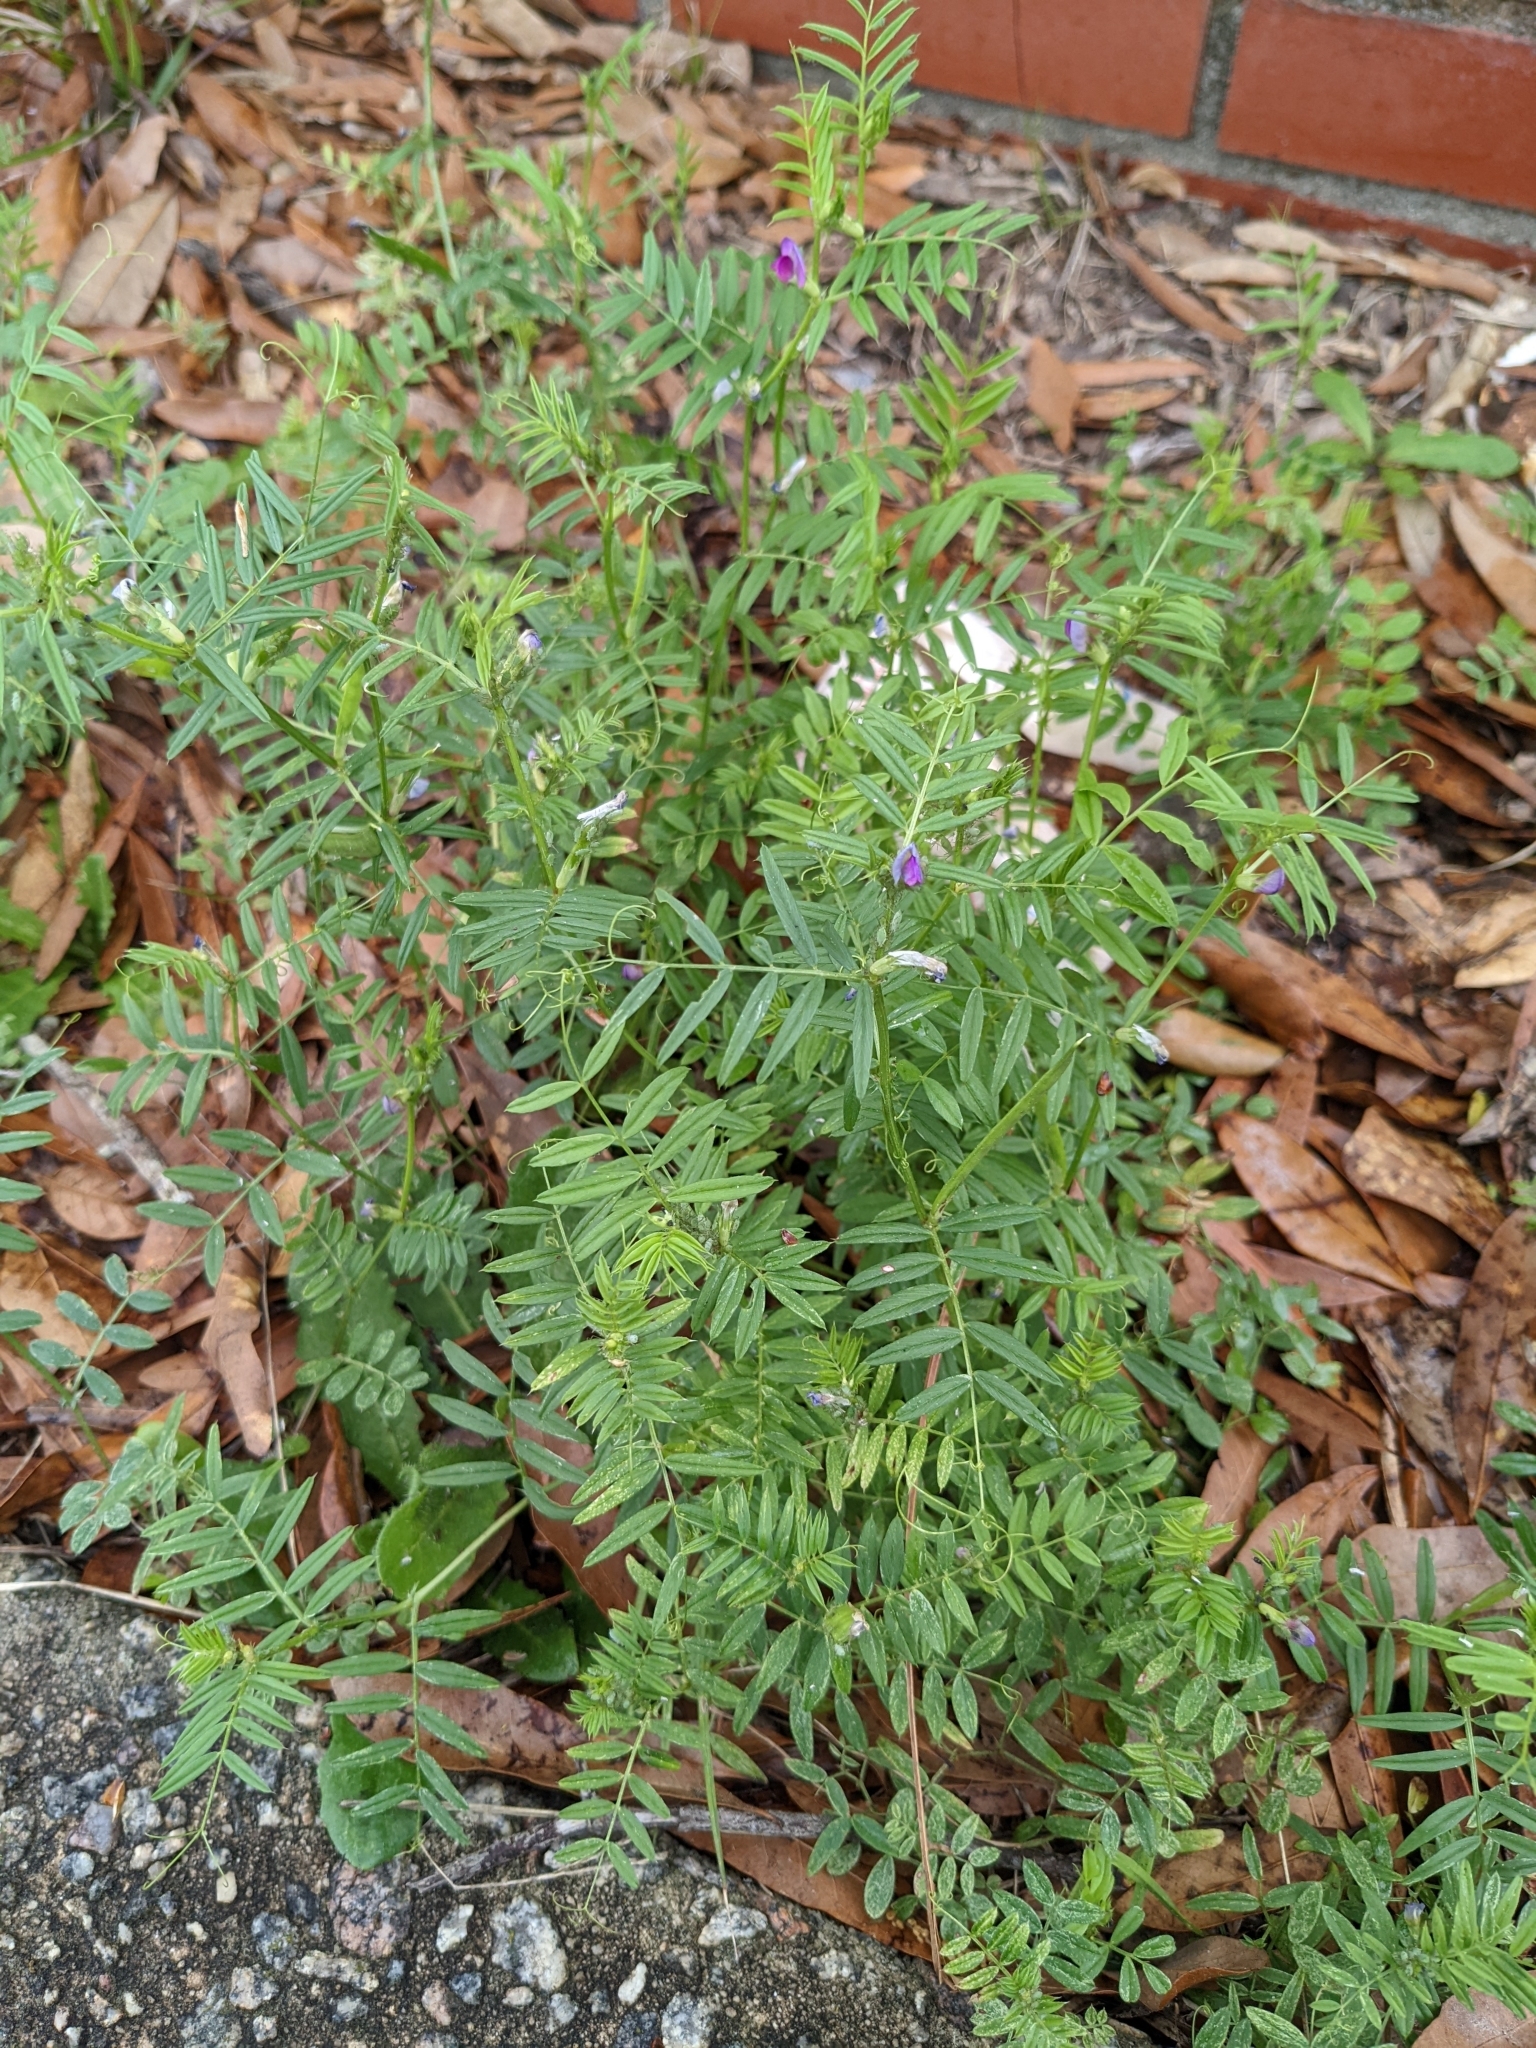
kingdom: Plantae
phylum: Tracheophyta
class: Magnoliopsida
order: Fabales
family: Fabaceae
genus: Vicia
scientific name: Vicia sativa
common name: Garden vetch
